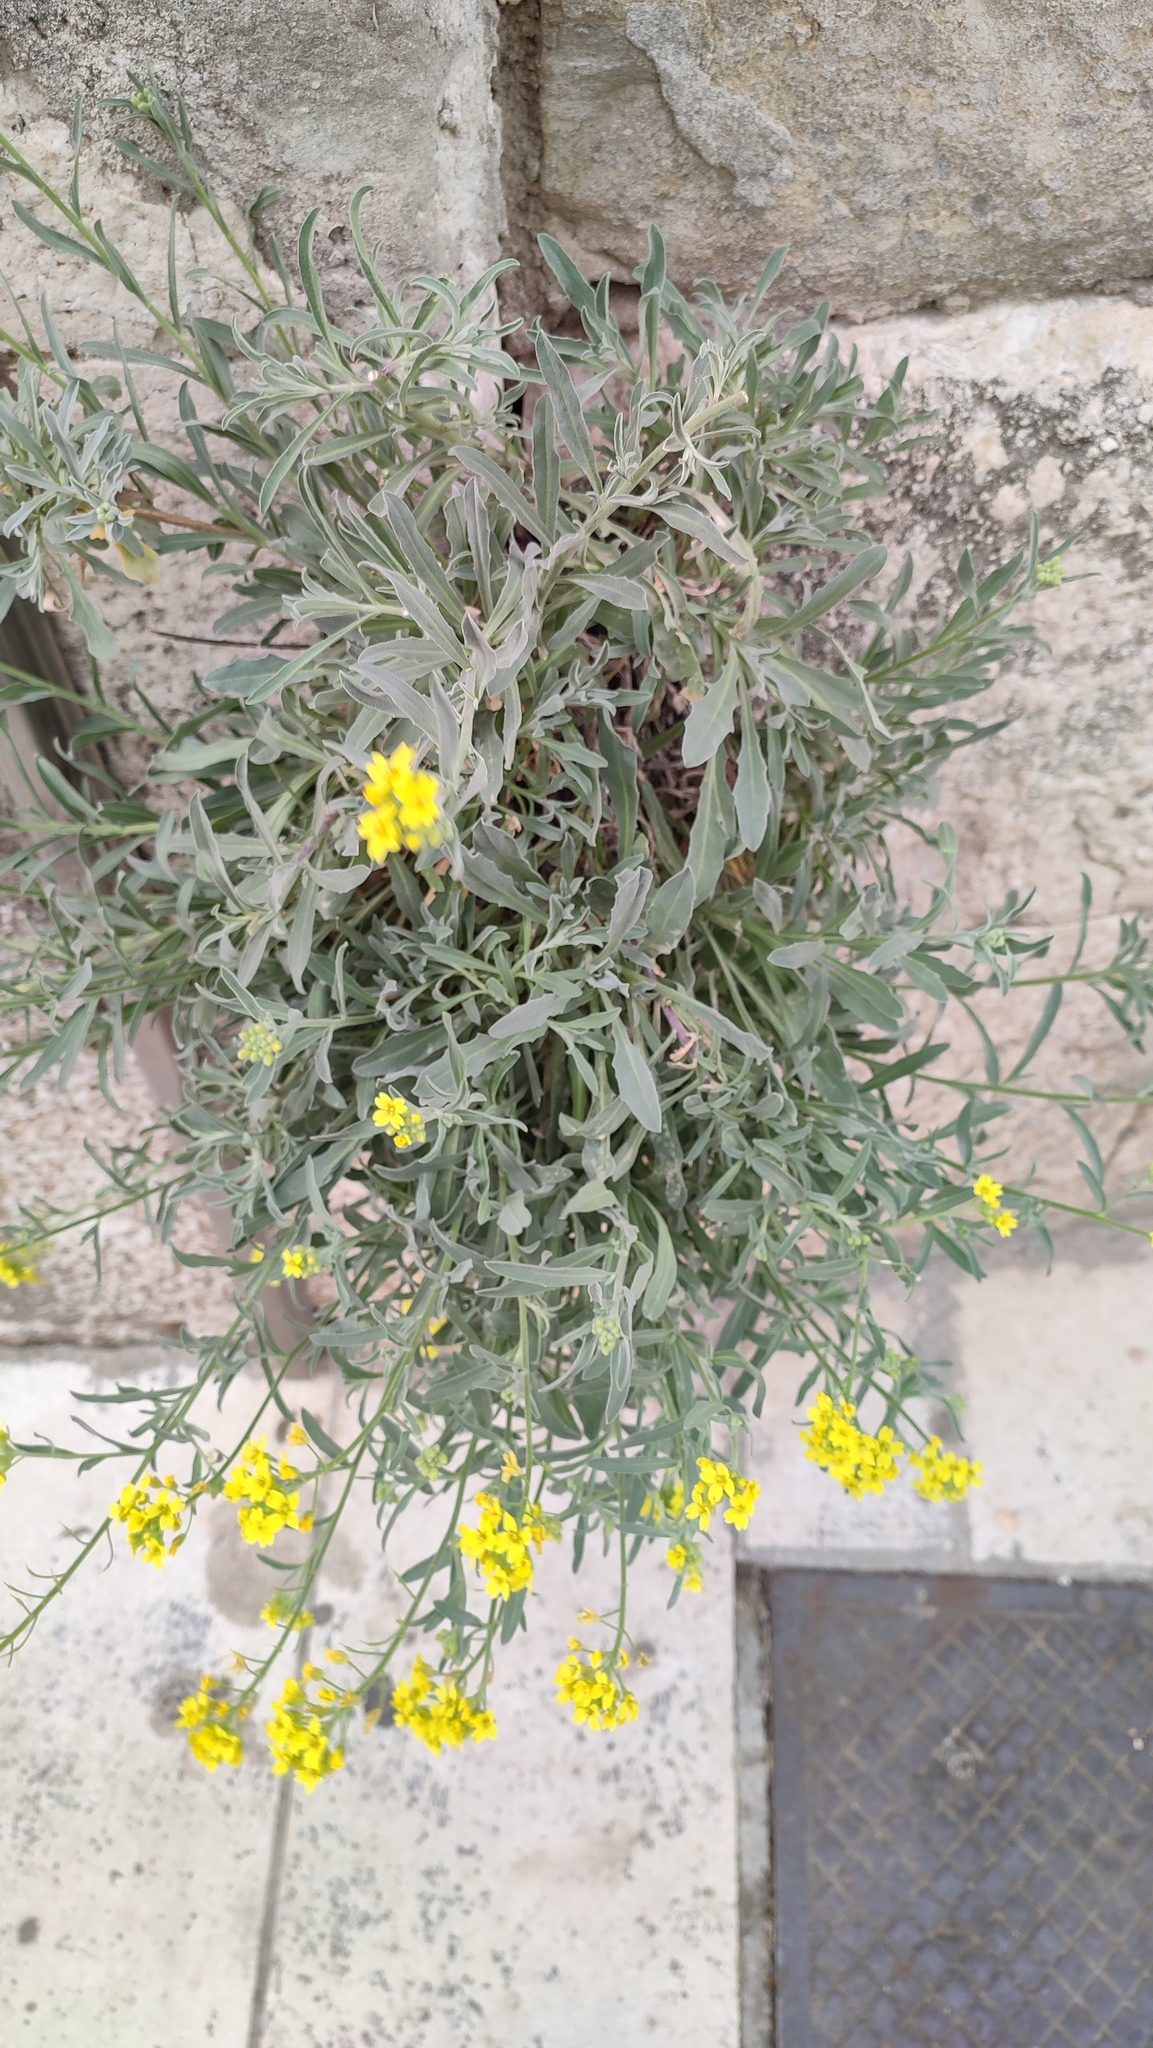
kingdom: Plantae
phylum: Tracheophyta
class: Magnoliopsida
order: Brassicales
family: Brassicaceae
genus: Aurinia
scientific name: Aurinia sinuata
